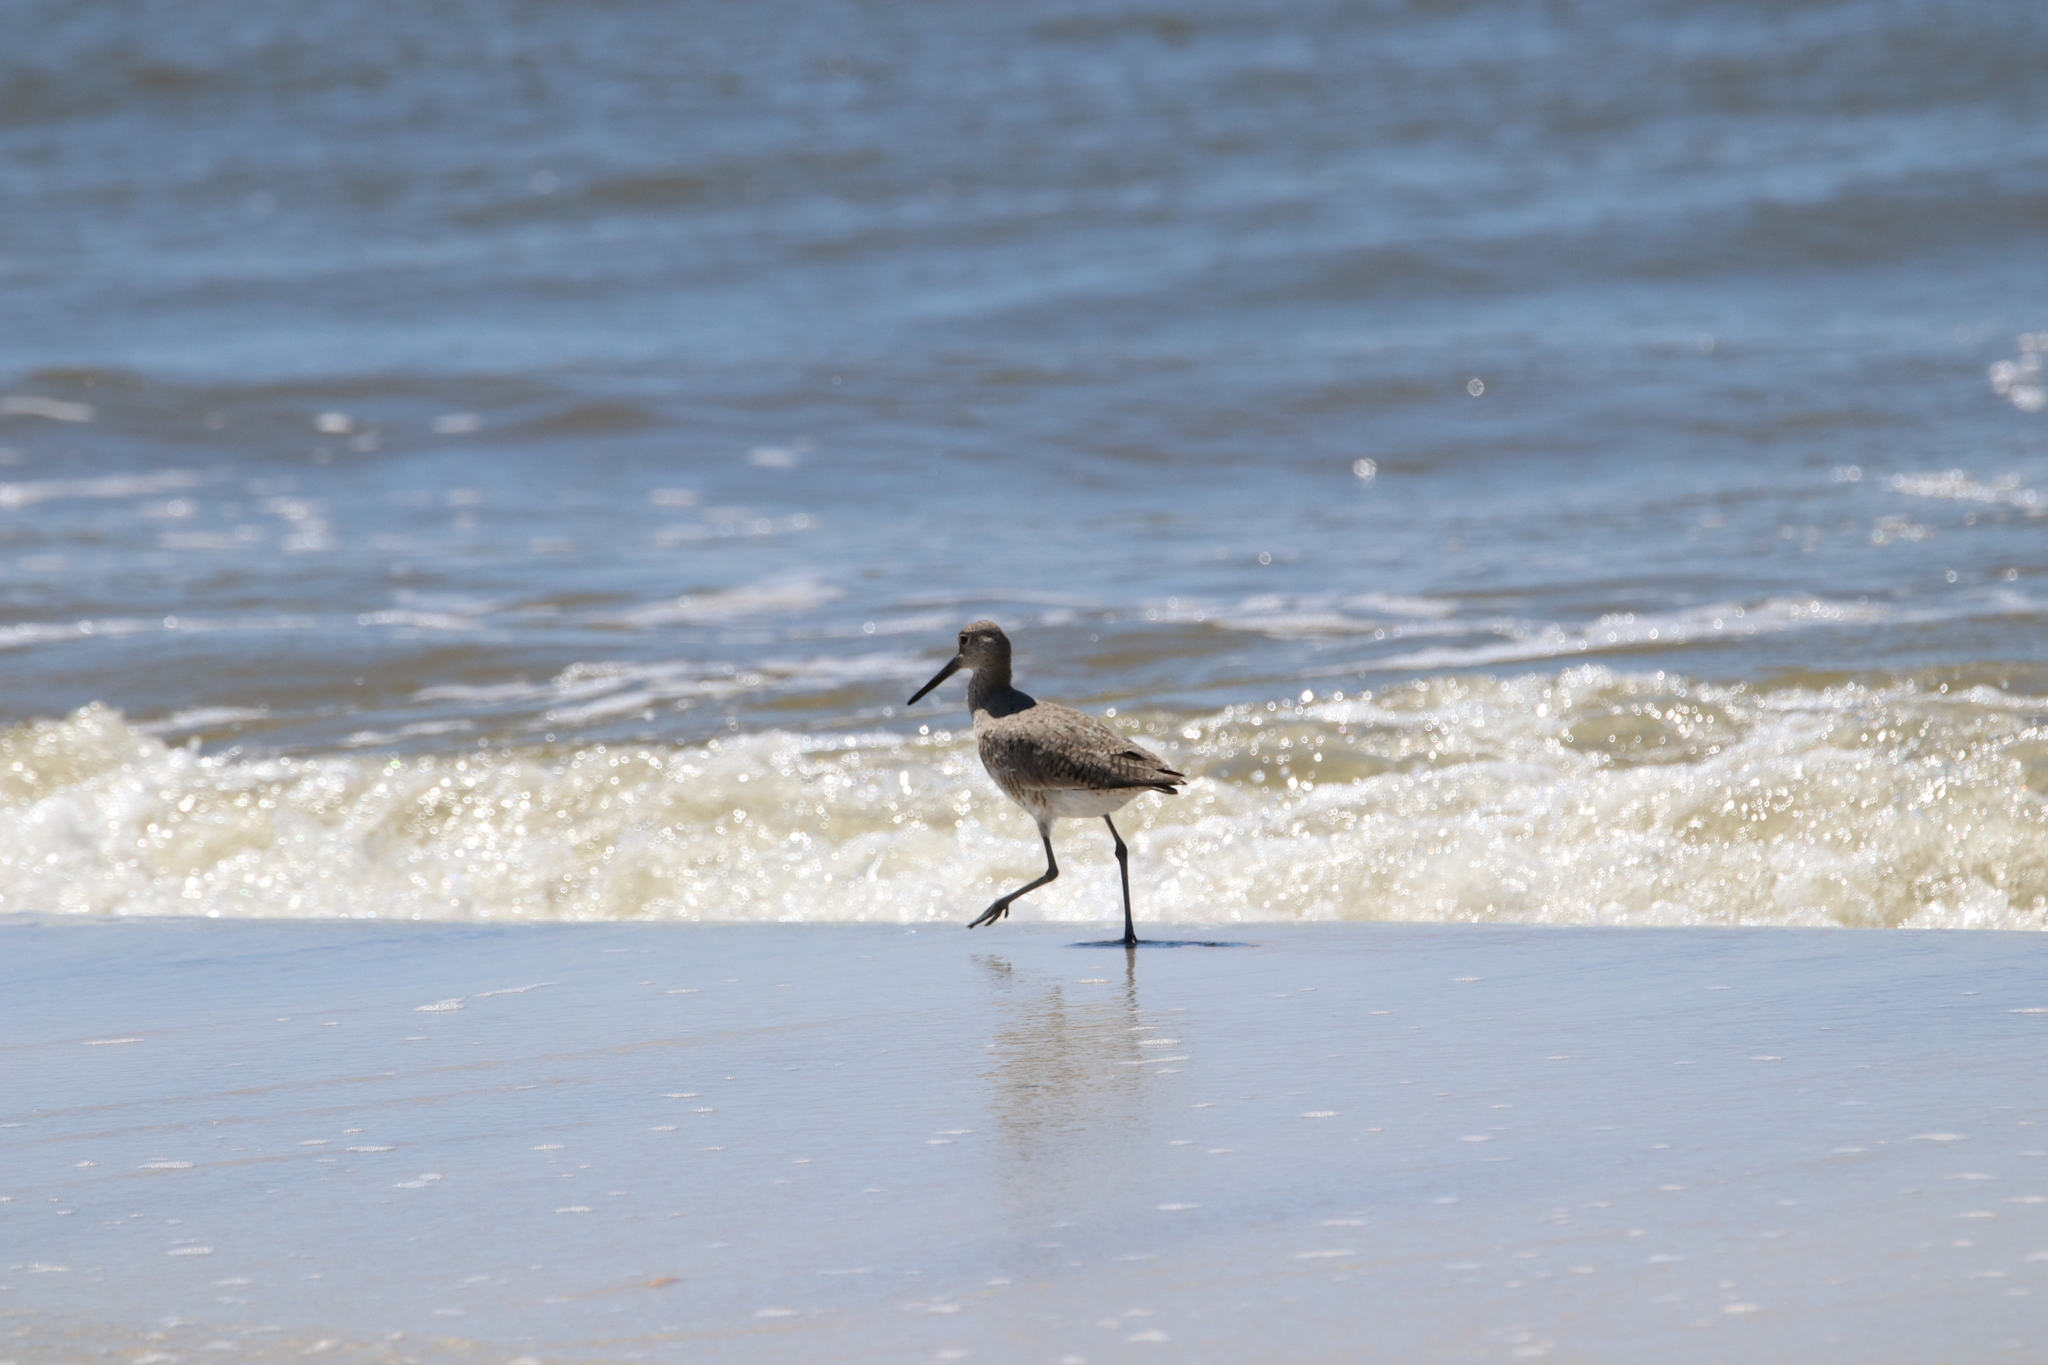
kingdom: Animalia
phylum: Chordata
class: Aves
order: Charadriiformes
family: Scolopacidae
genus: Tringa
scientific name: Tringa semipalmata
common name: Willet
